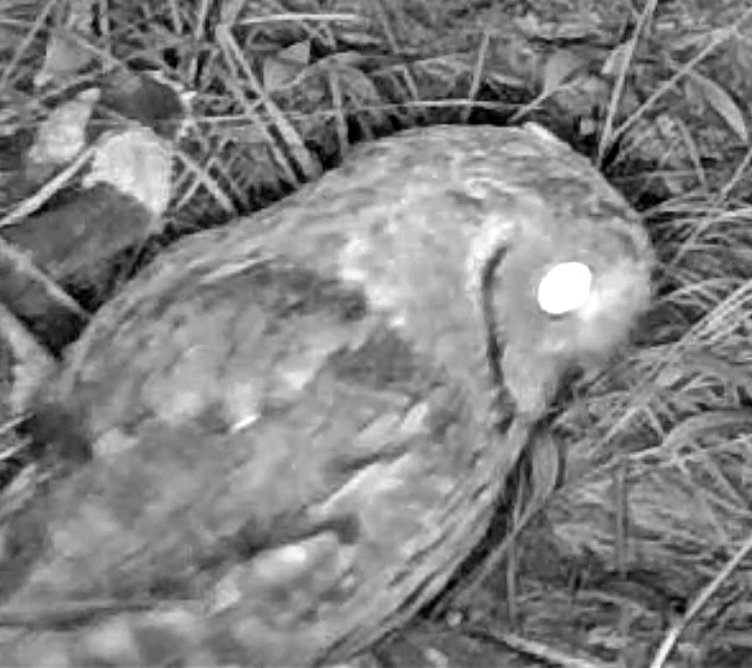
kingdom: Animalia
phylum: Chordata
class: Aves
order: Strigiformes
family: Strigidae
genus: Megascops
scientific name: Megascops asio
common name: Eastern screech-owl
